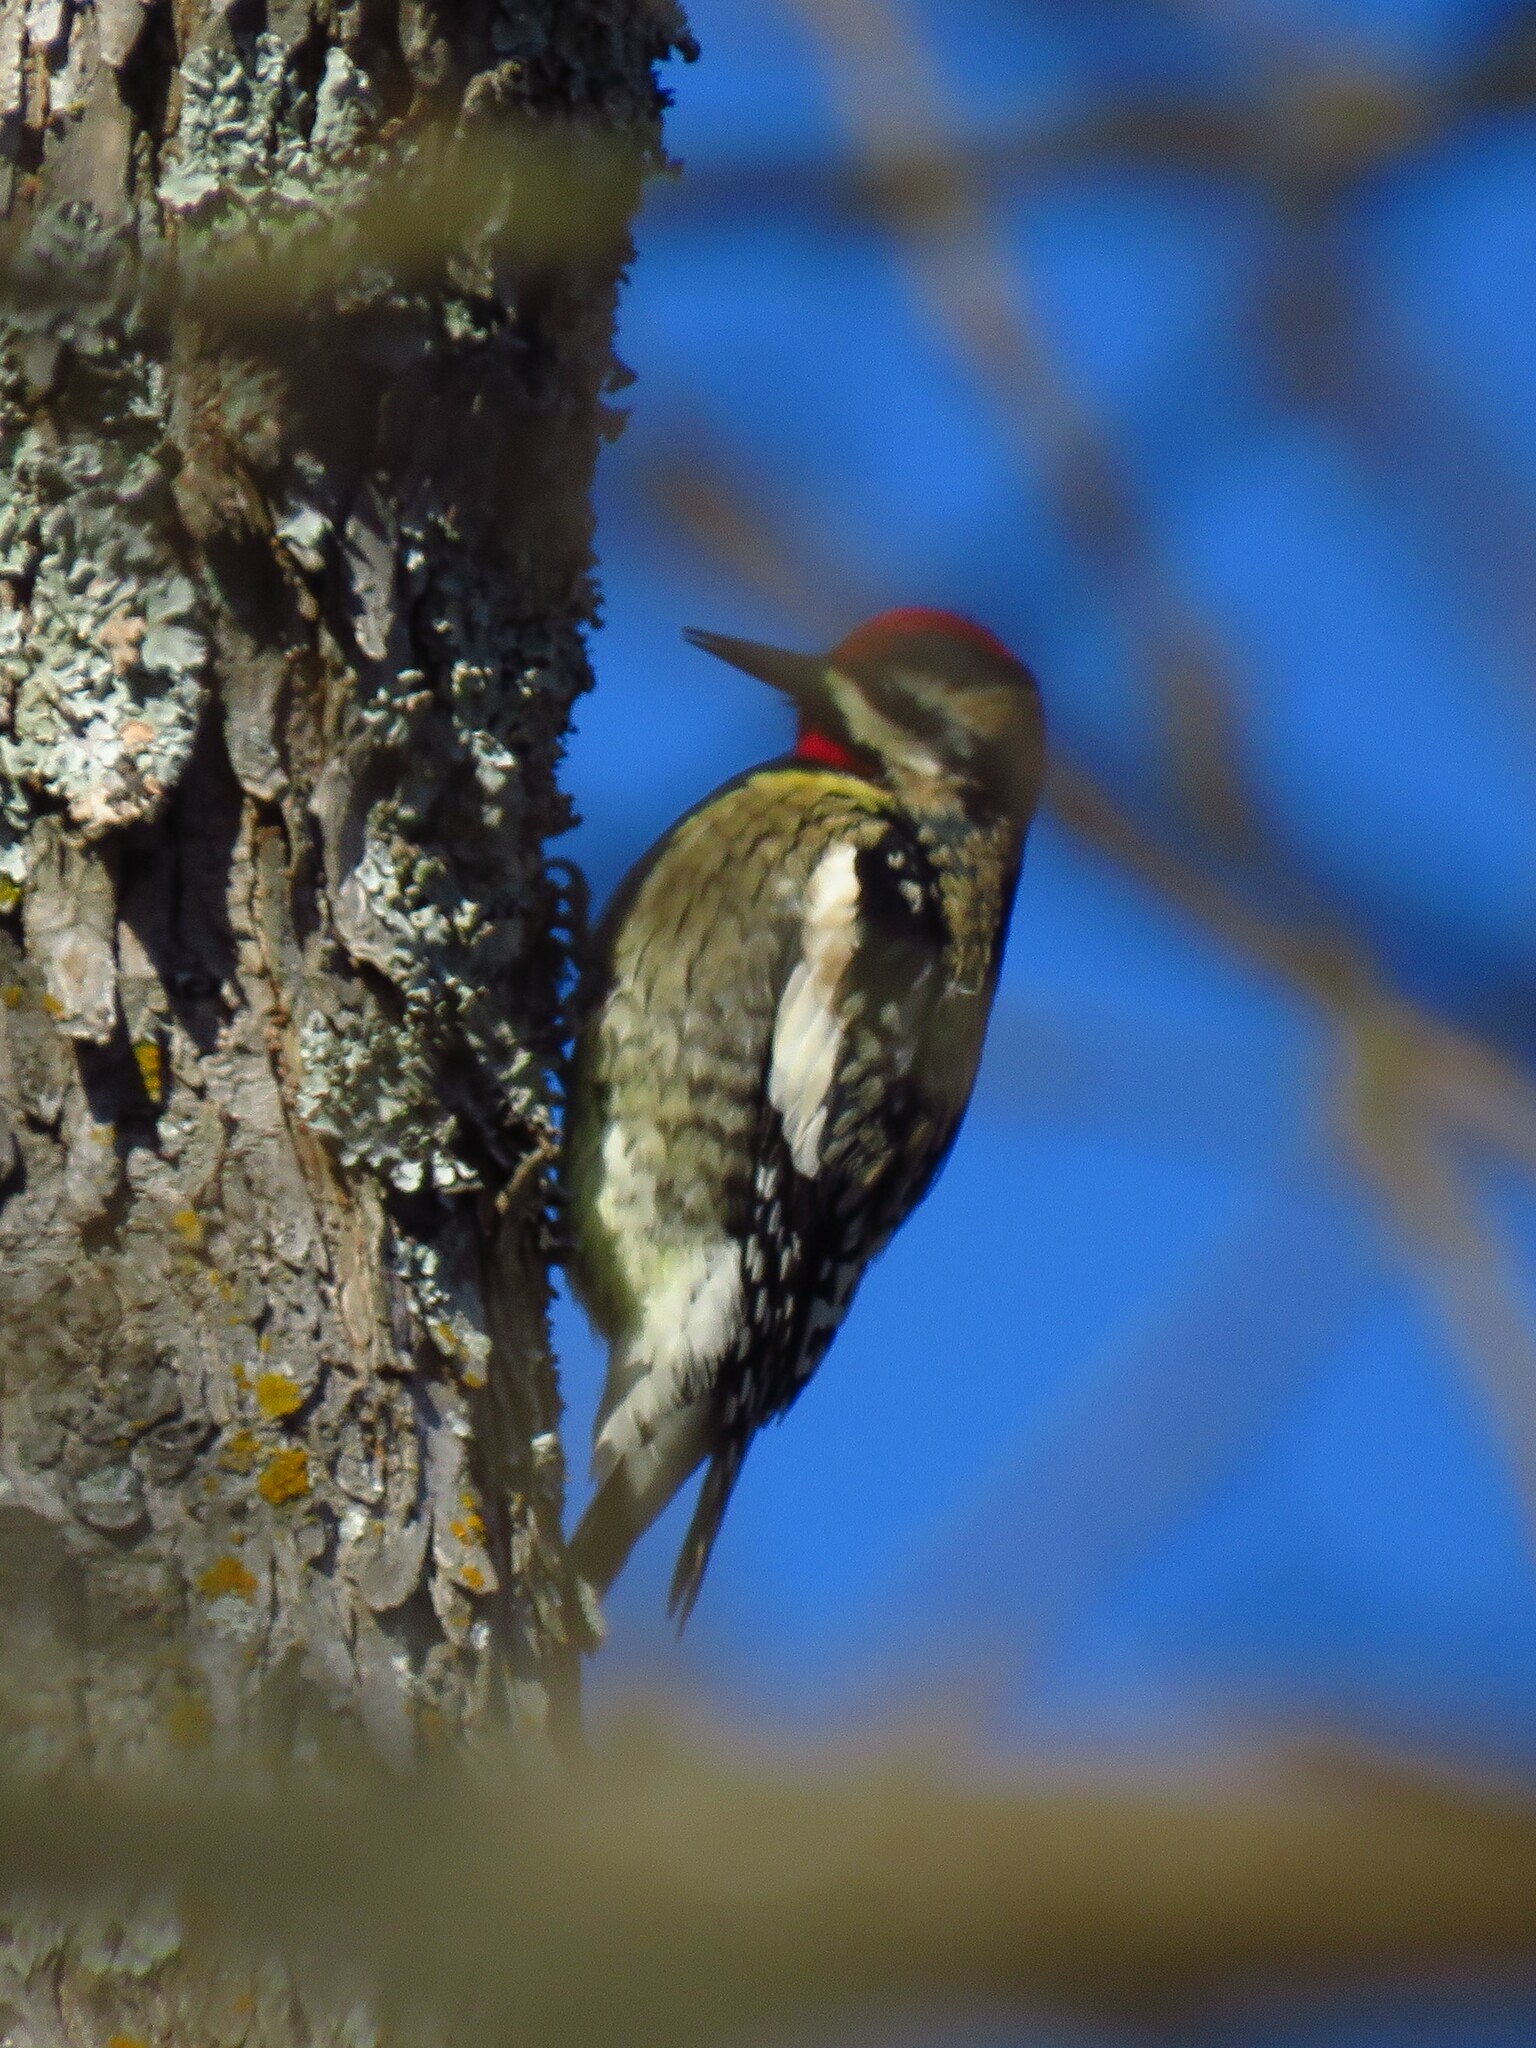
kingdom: Animalia
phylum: Chordata
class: Aves
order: Piciformes
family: Picidae
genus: Sphyrapicus
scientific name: Sphyrapicus varius
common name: Yellow-bellied sapsucker
